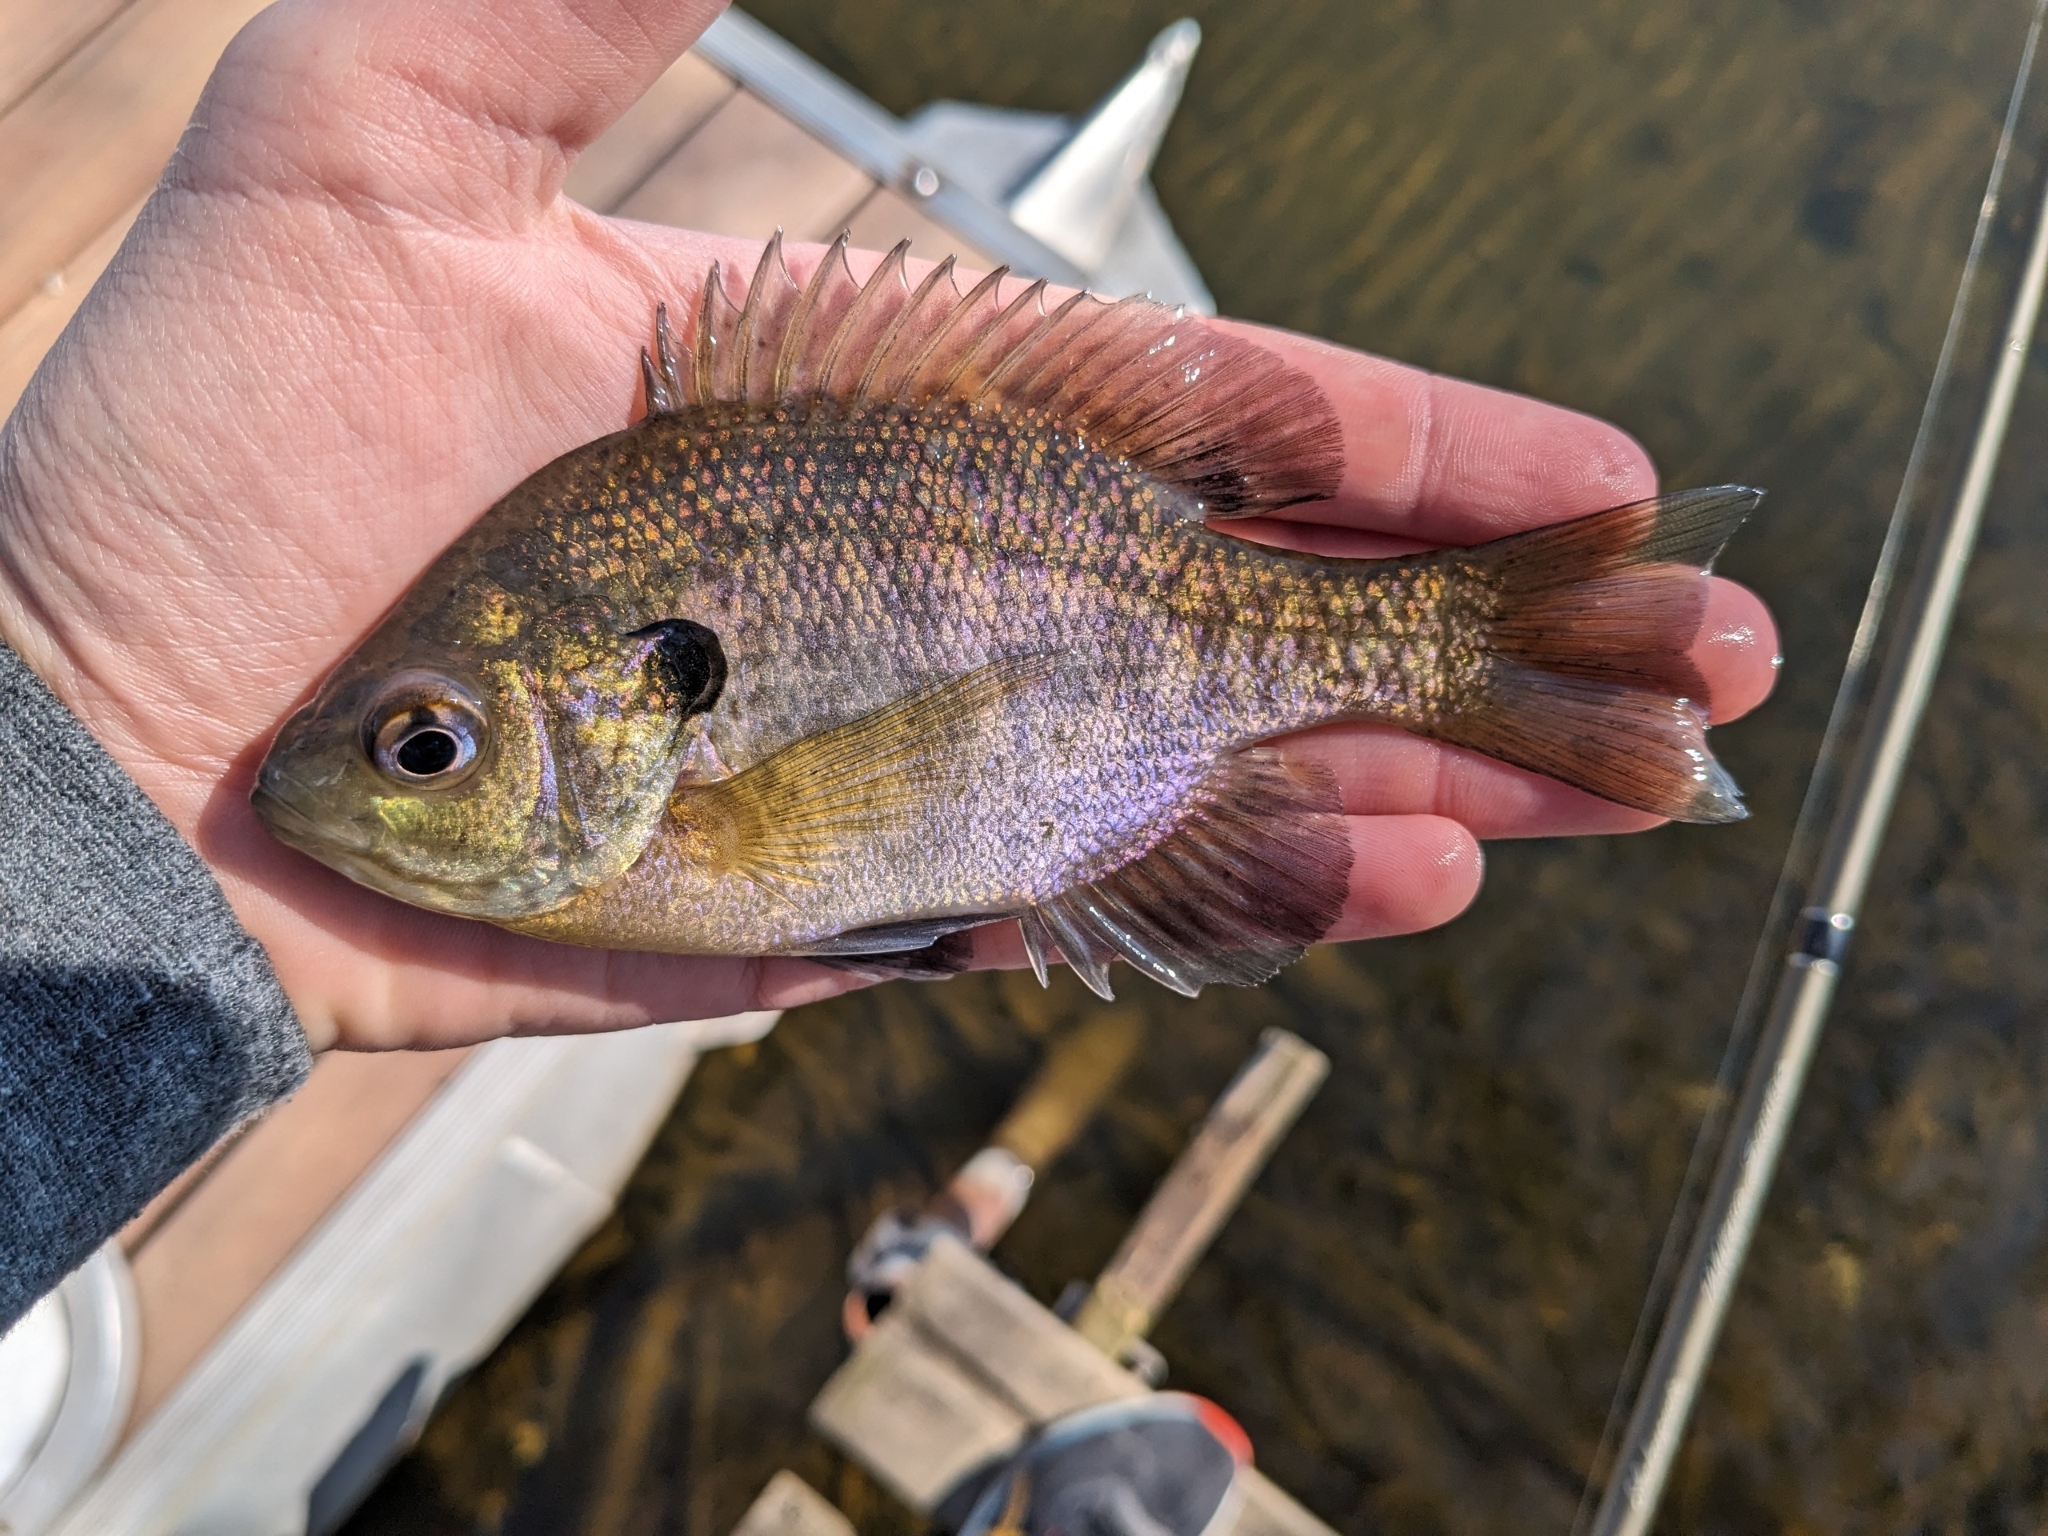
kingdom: Animalia
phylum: Chordata
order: Perciformes
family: Centrarchidae
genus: Lepomis
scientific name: Lepomis macrochirus
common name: Bluegill
